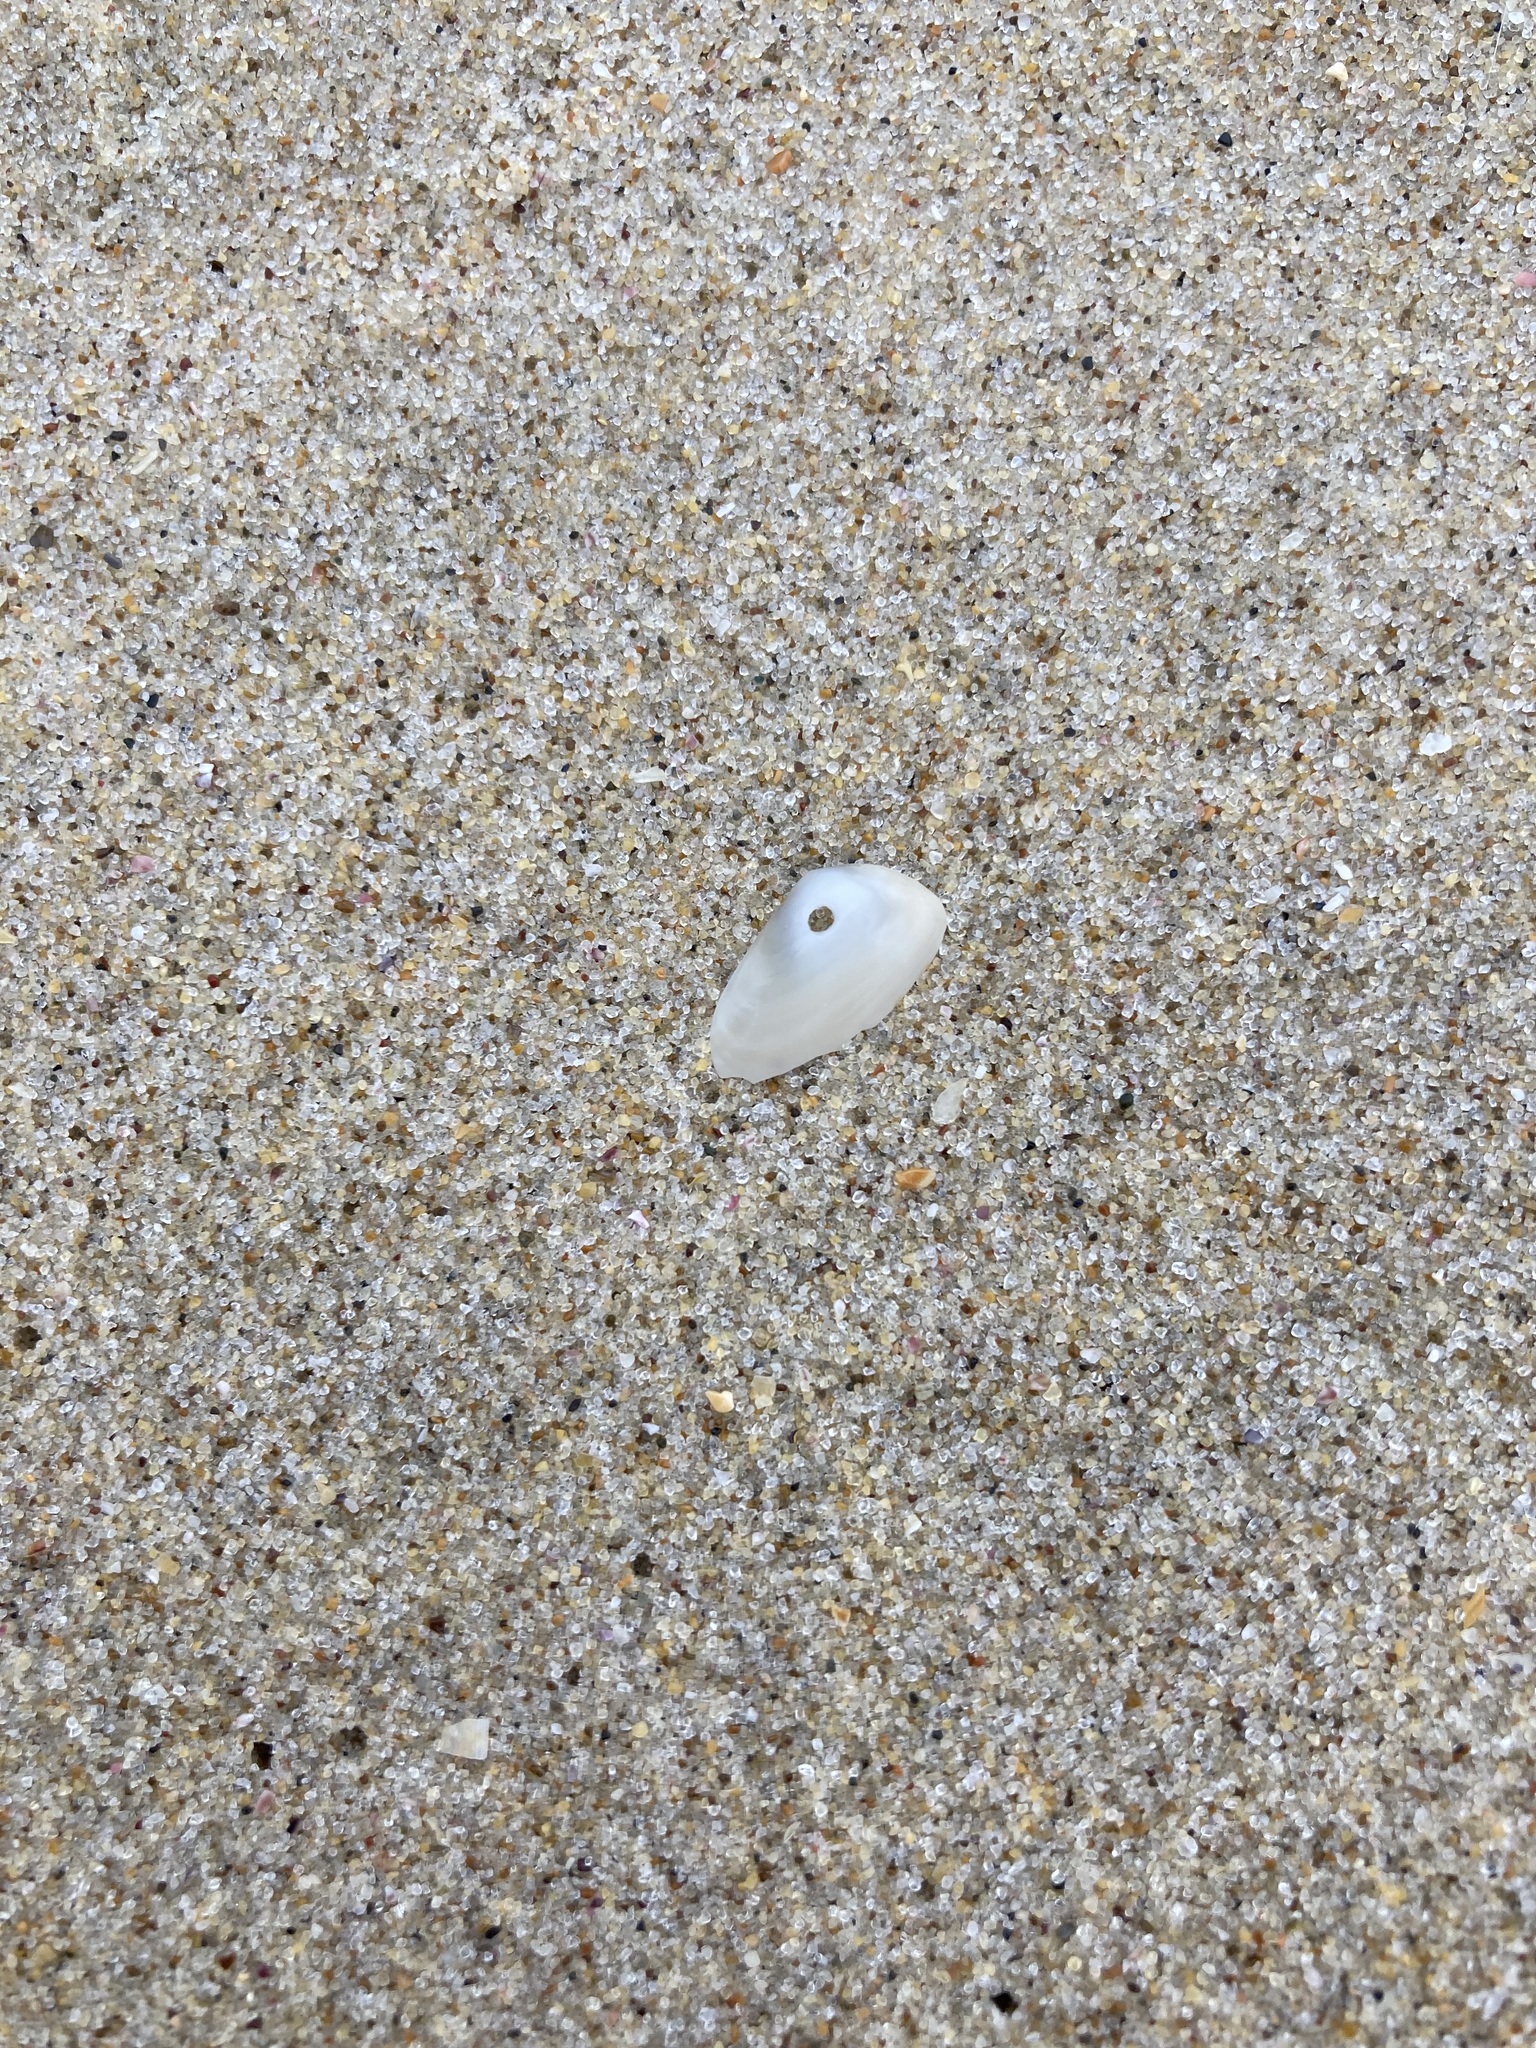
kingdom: Animalia
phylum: Mollusca
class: Bivalvia
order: Venerida
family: Mesodesmatidae
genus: Paphies
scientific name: Paphies angusta
